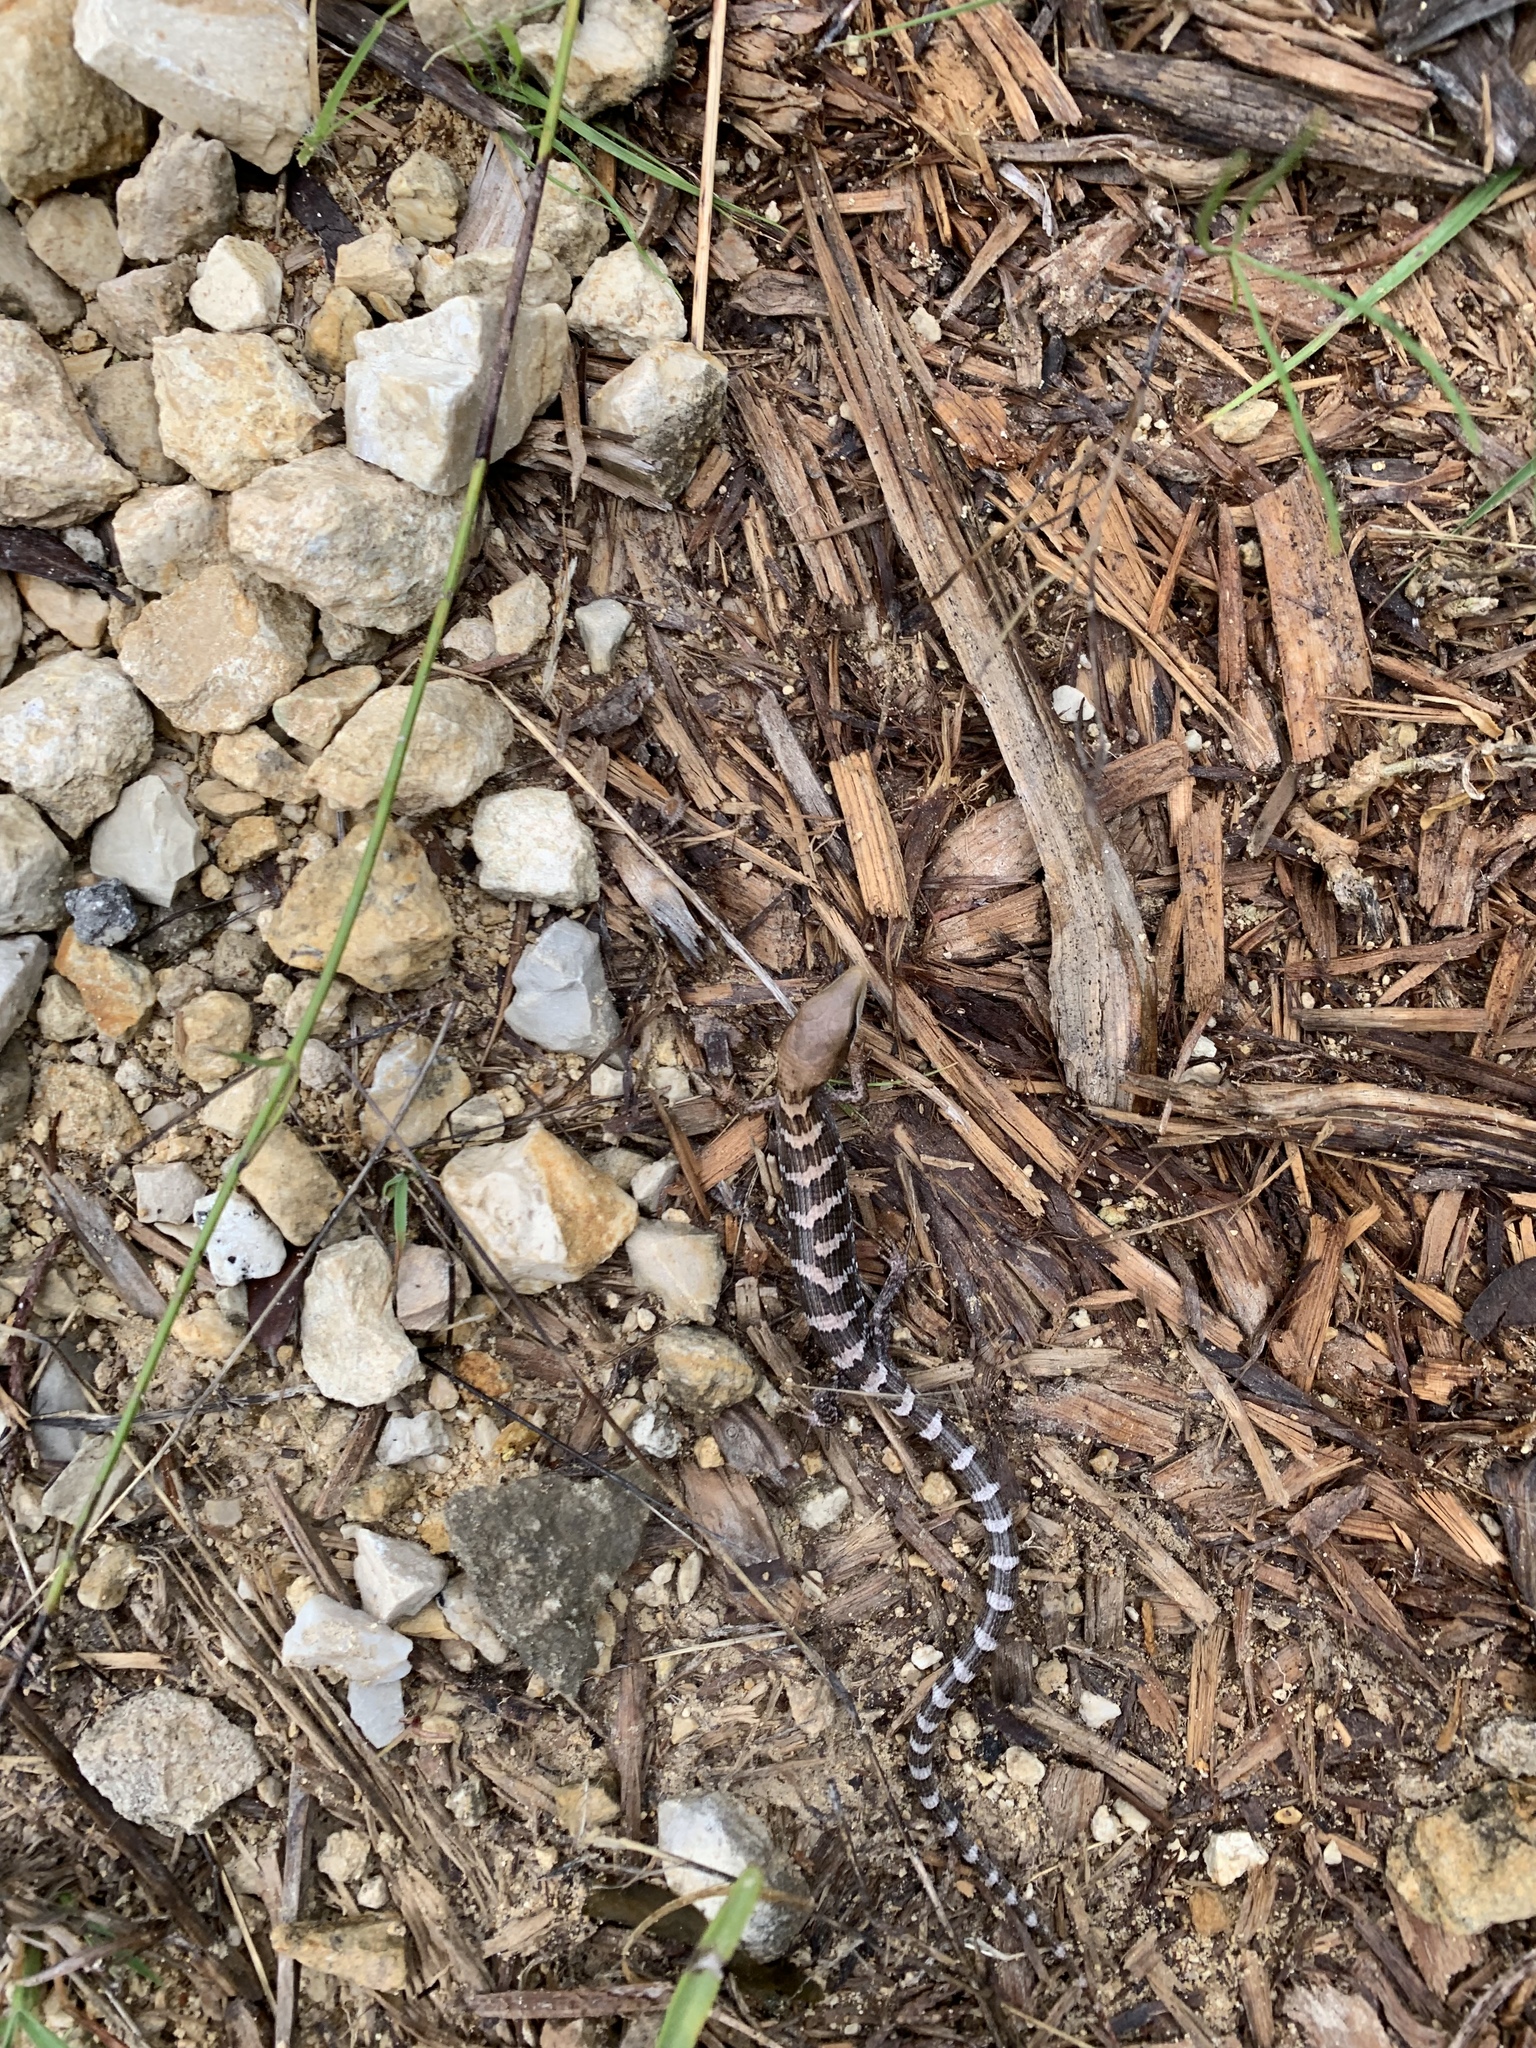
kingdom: Animalia
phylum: Chordata
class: Squamata
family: Anguidae
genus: Gerrhonotus
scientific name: Gerrhonotus infernalis
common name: Texas alligator lizard
